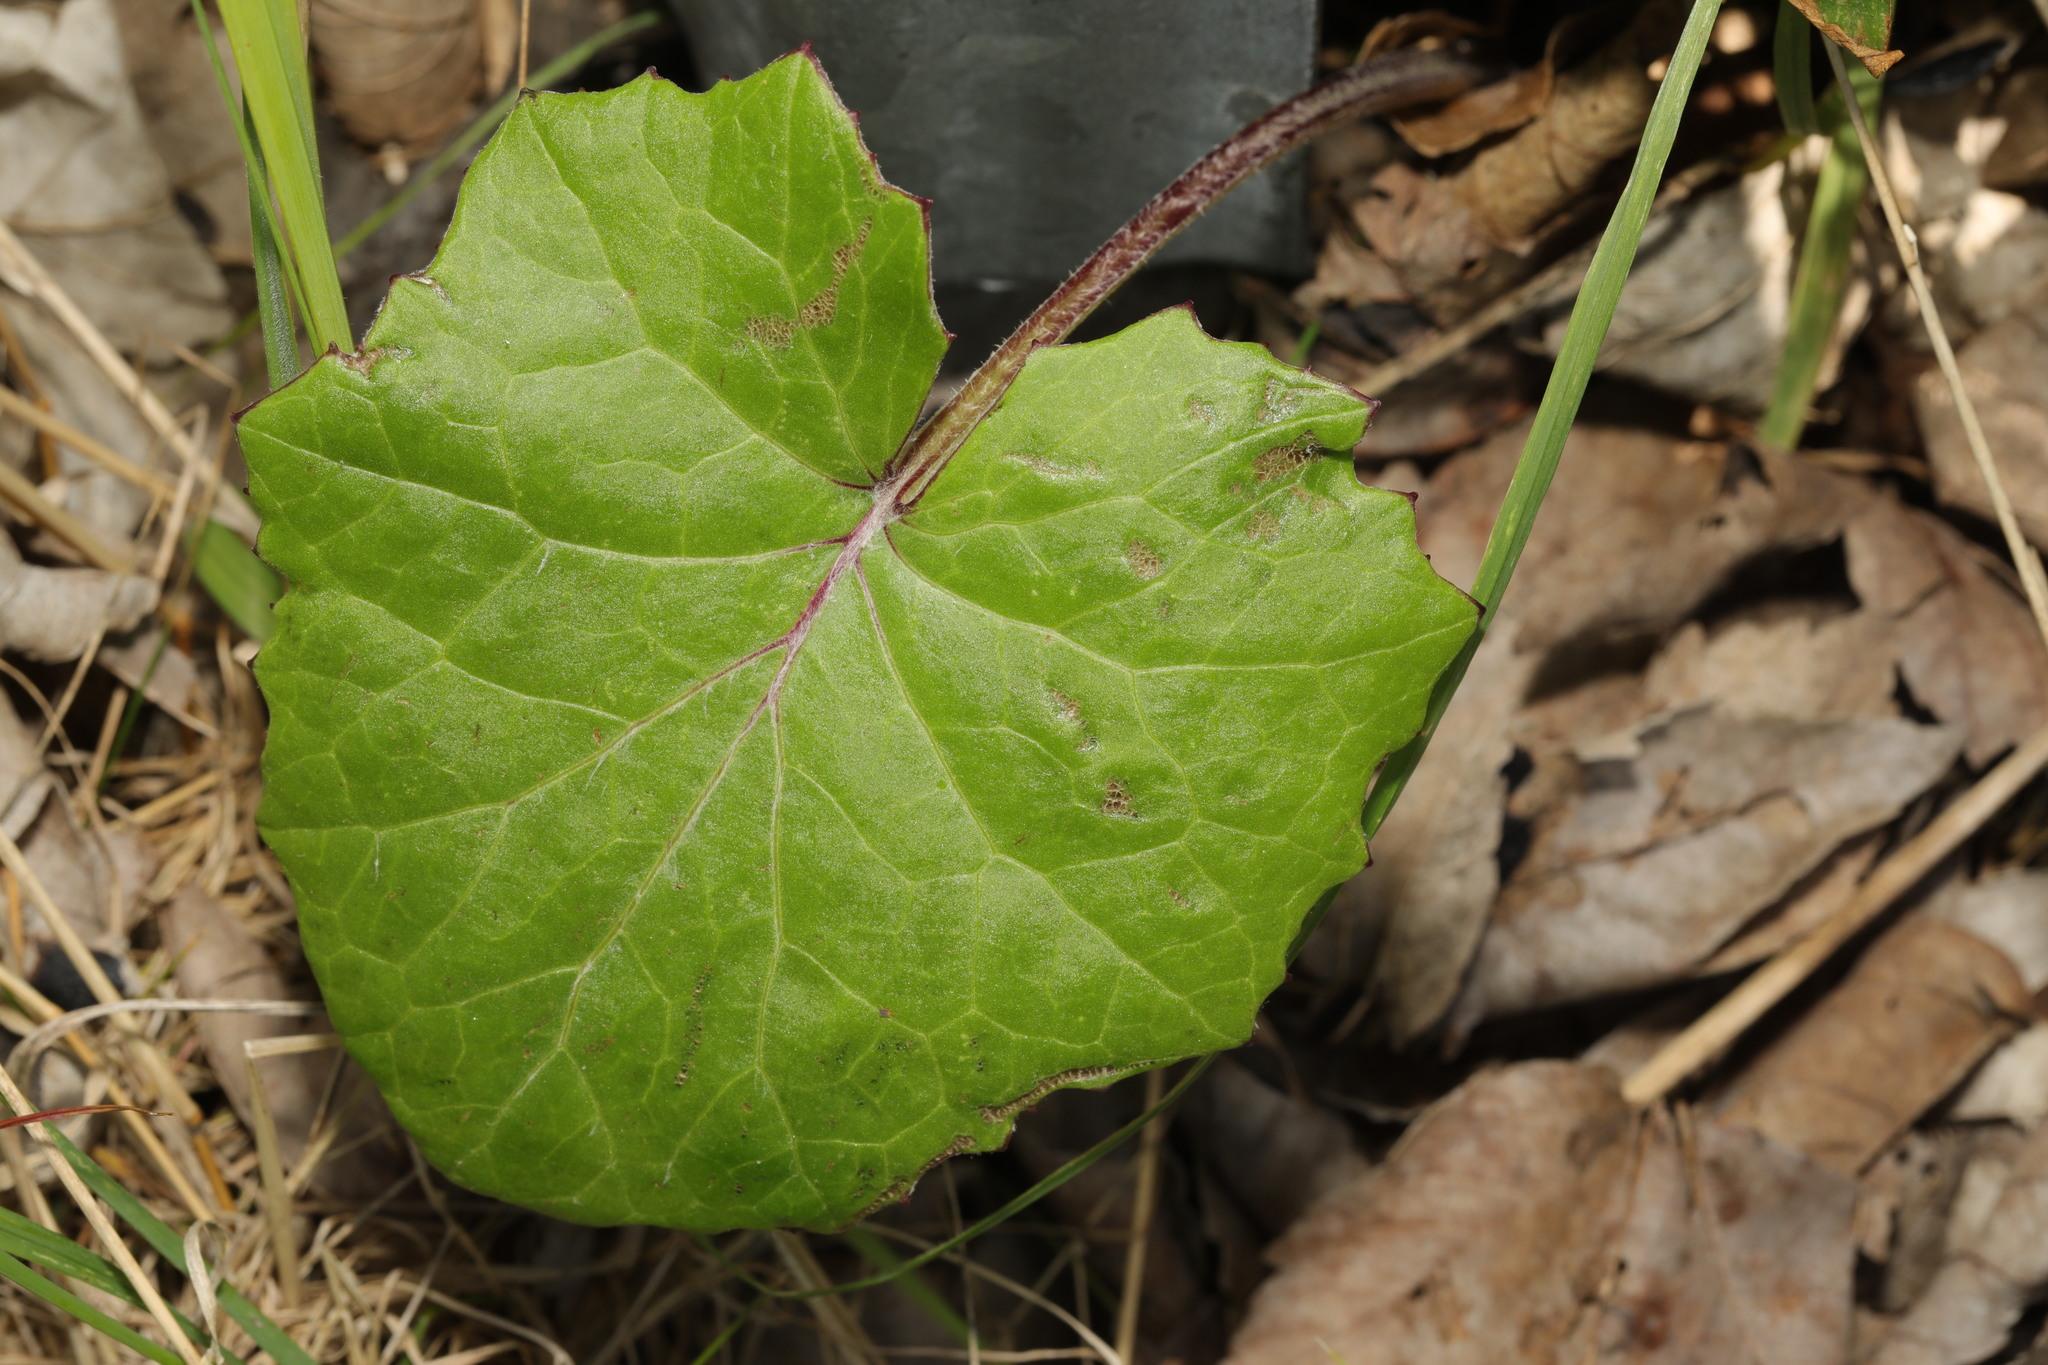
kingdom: Plantae
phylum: Tracheophyta
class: Magnoliopsida
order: Asterales
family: Asteraceae
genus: Tussilago
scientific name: Tussilago farfara
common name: Coltsfoot
